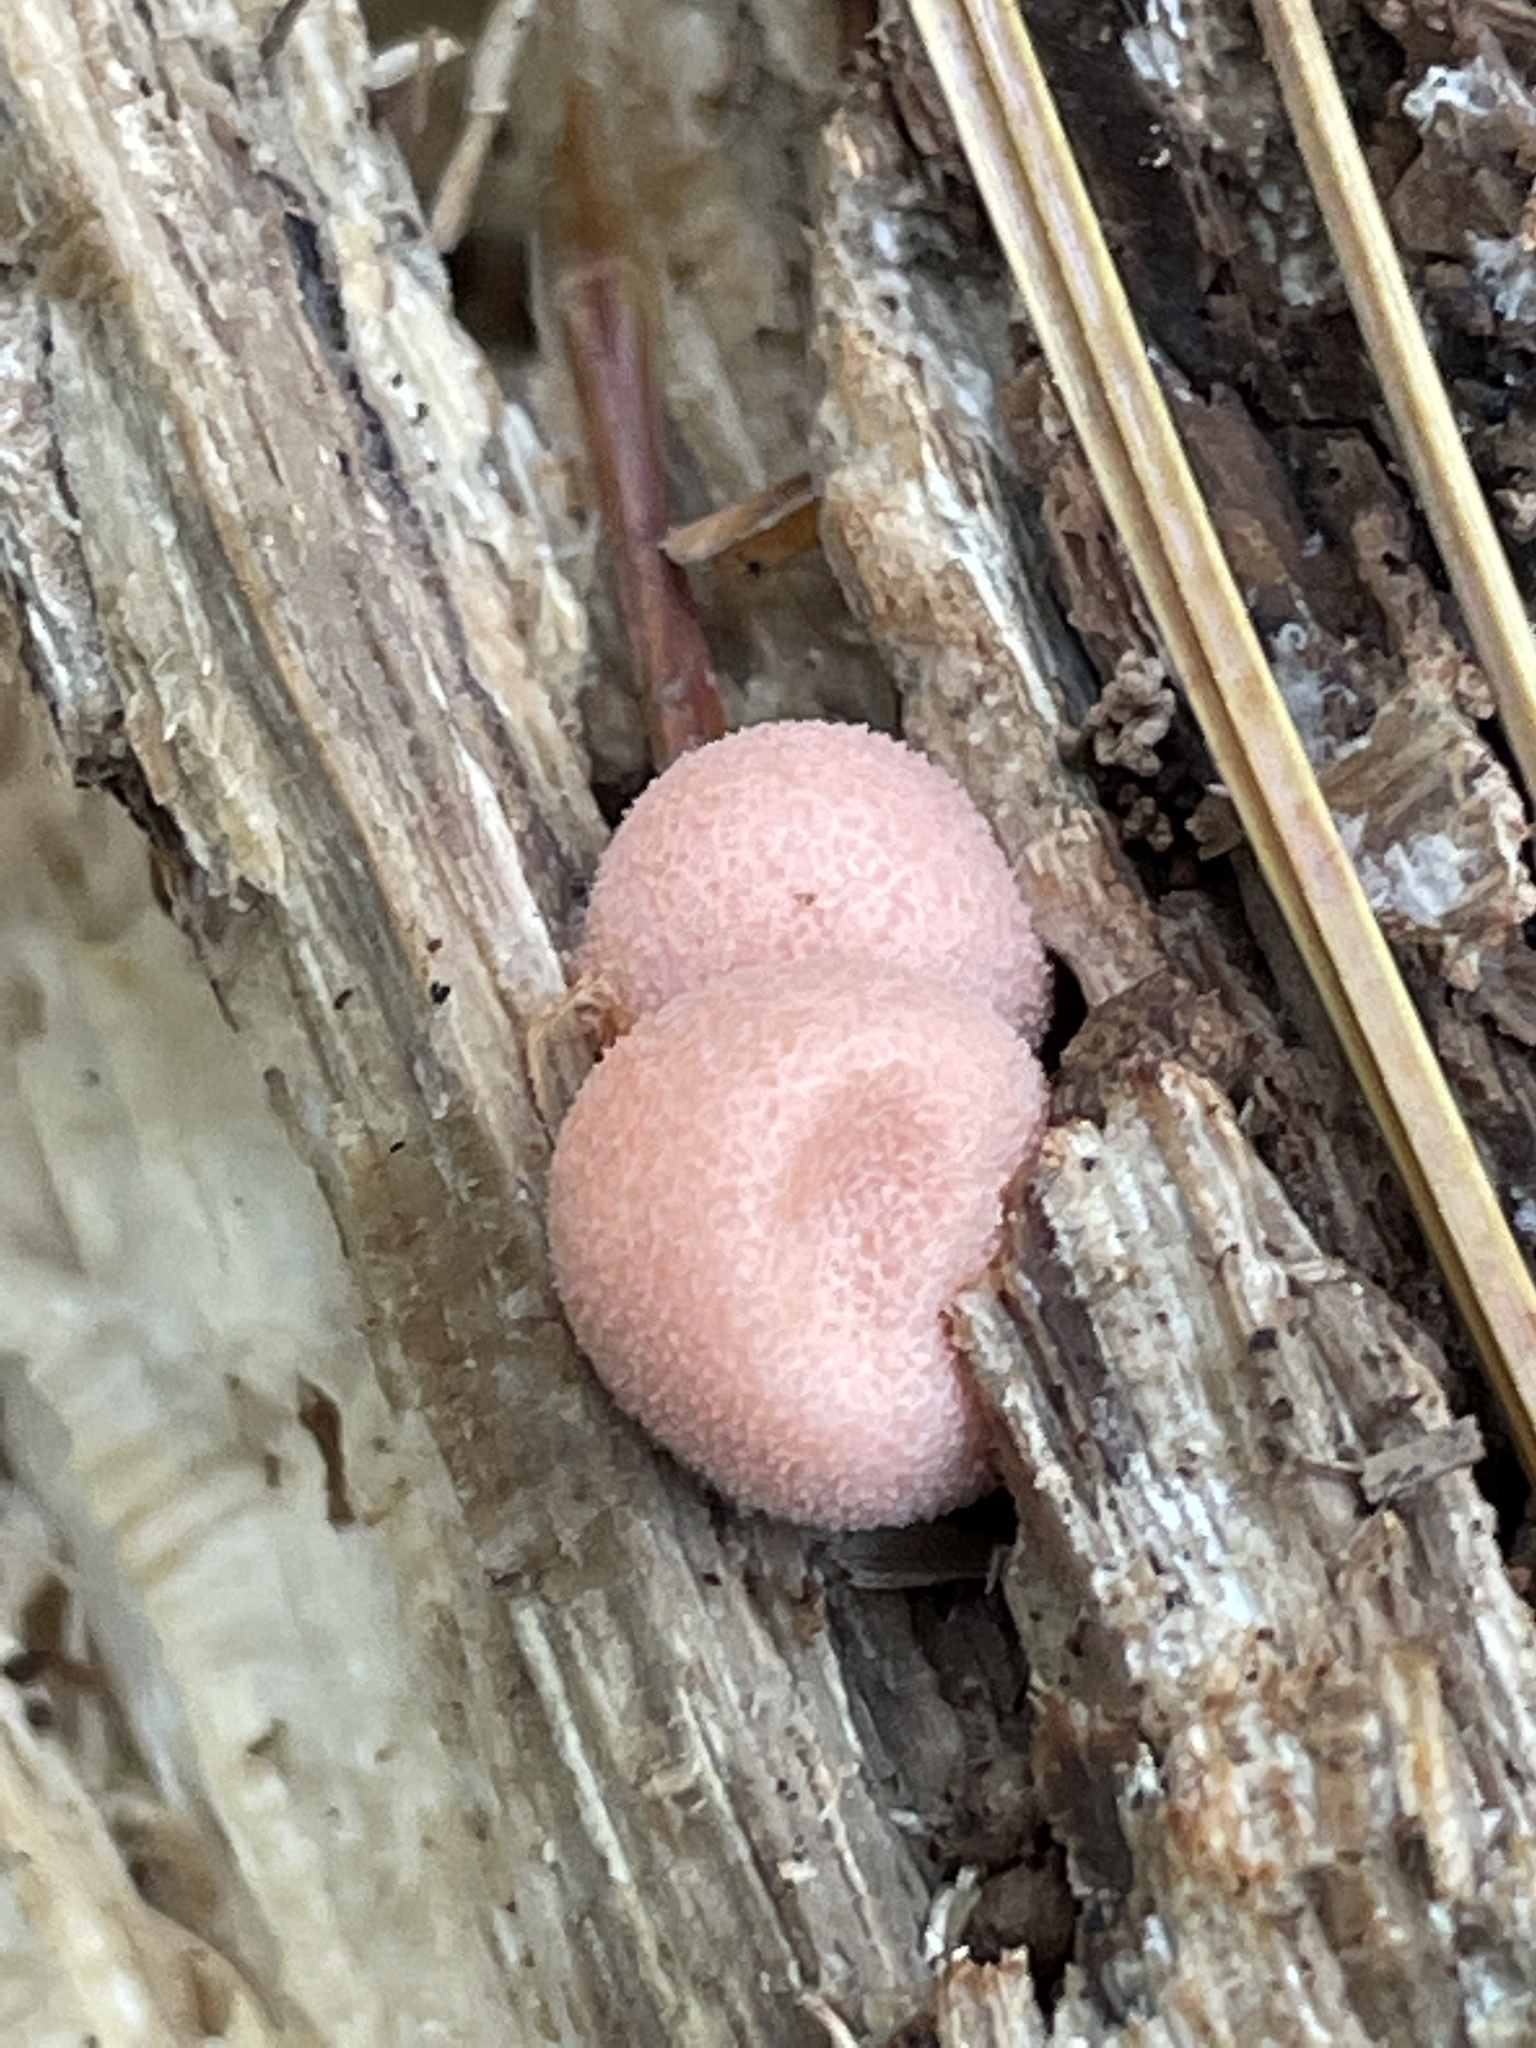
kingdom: Protozoa
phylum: Mycetozoa
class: Myxomycetes
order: Cribrariales
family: Tubiferaceae
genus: Lycogala
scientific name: Lycogala epidendrum
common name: Wolf's milk
